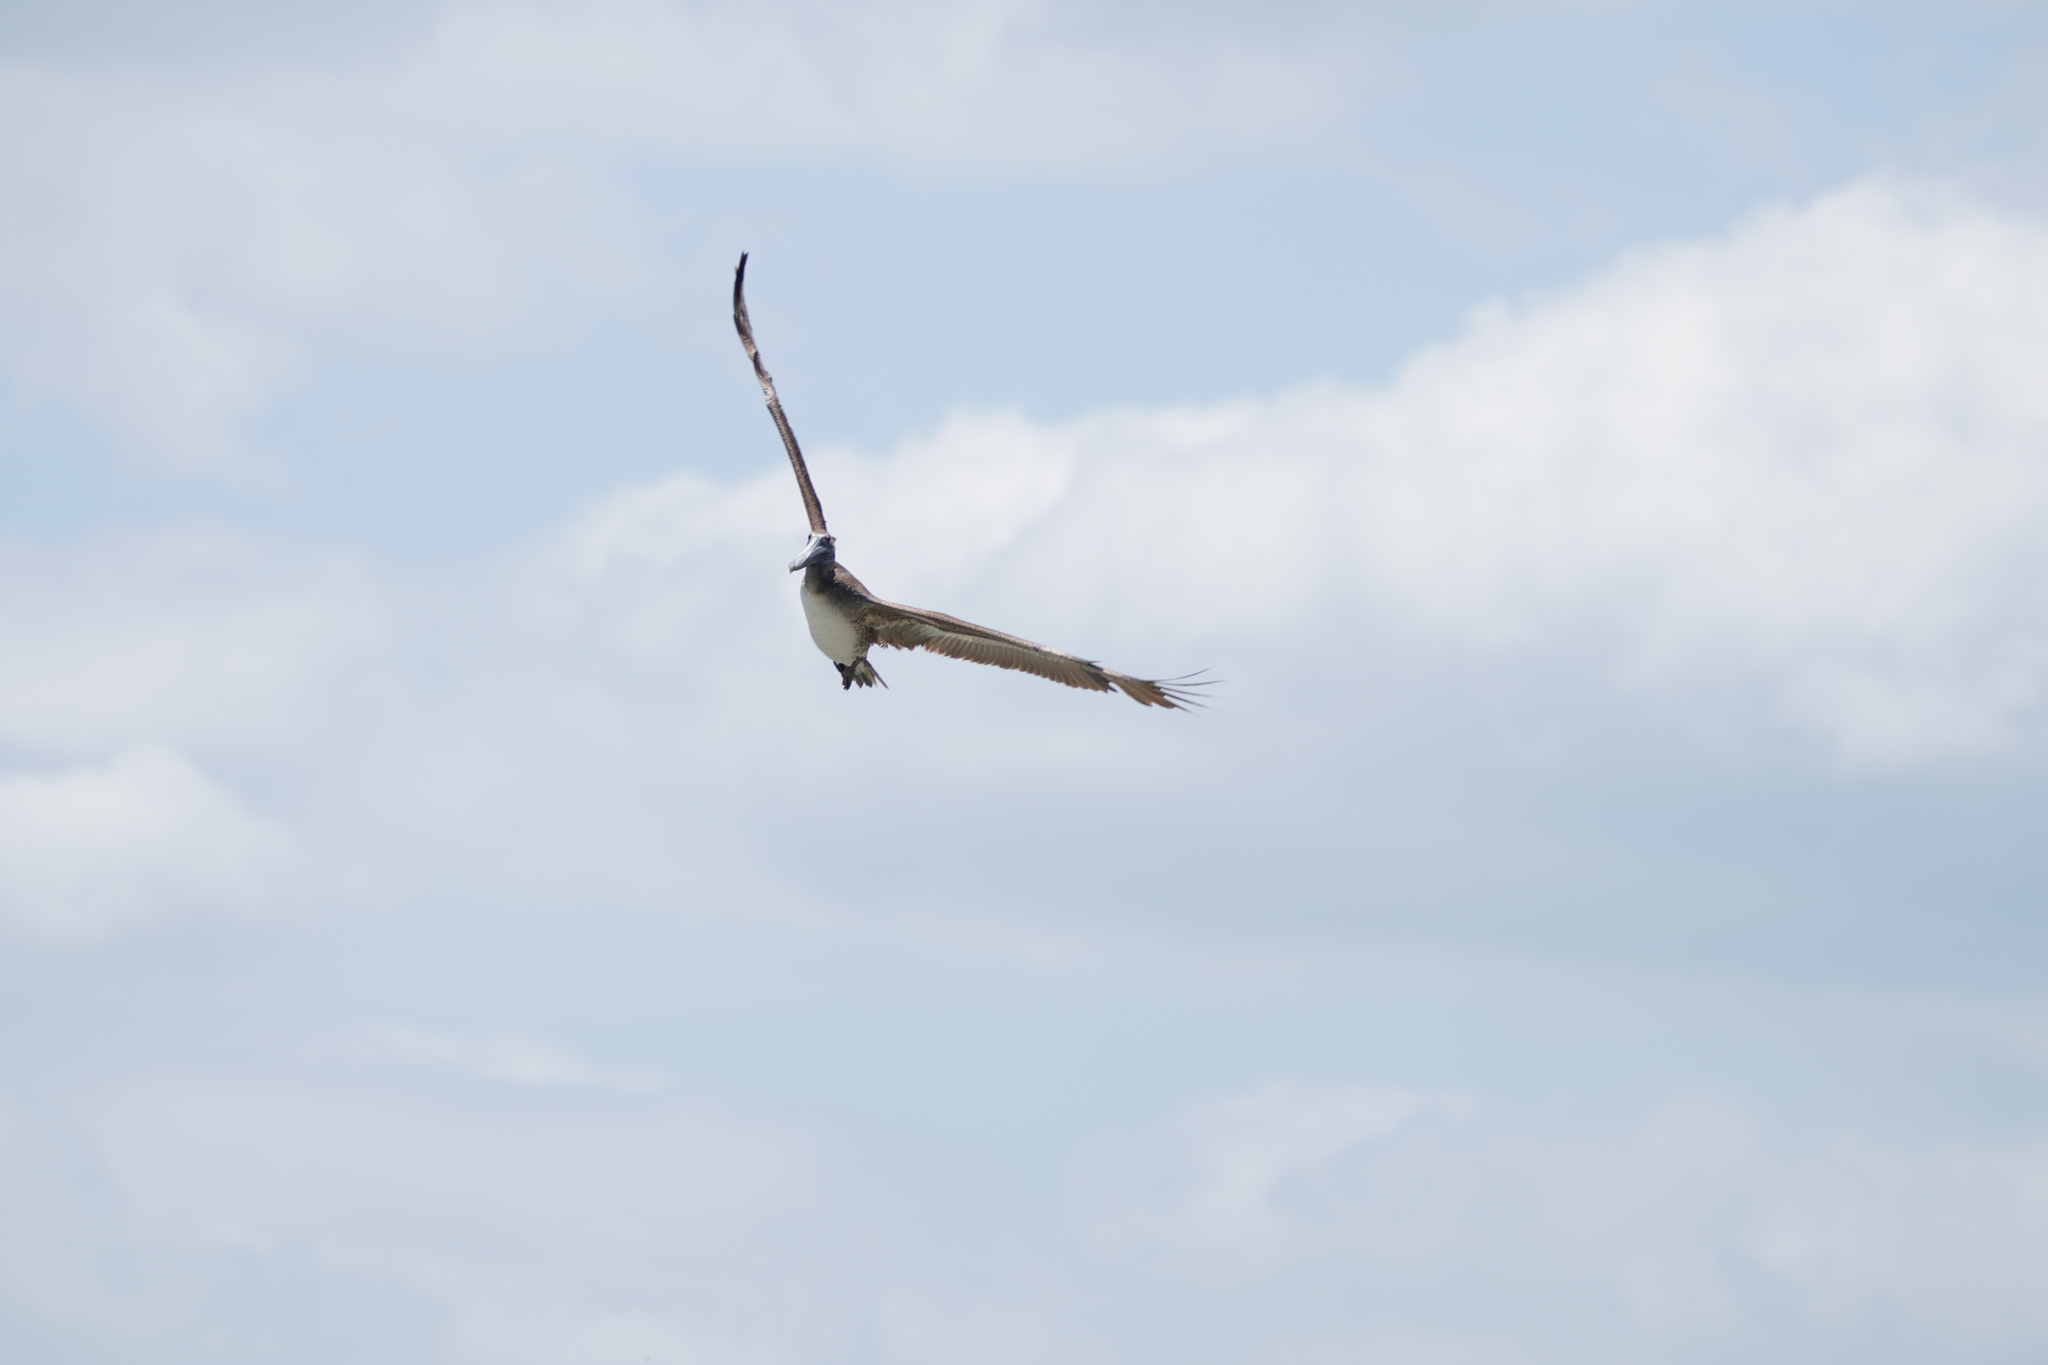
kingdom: Animalia
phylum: Chordata
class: Aves
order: Pelecaniformes
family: Pelecanidae
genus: Pelecanus
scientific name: Pelecanus occidentalis
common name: Brown pelican
